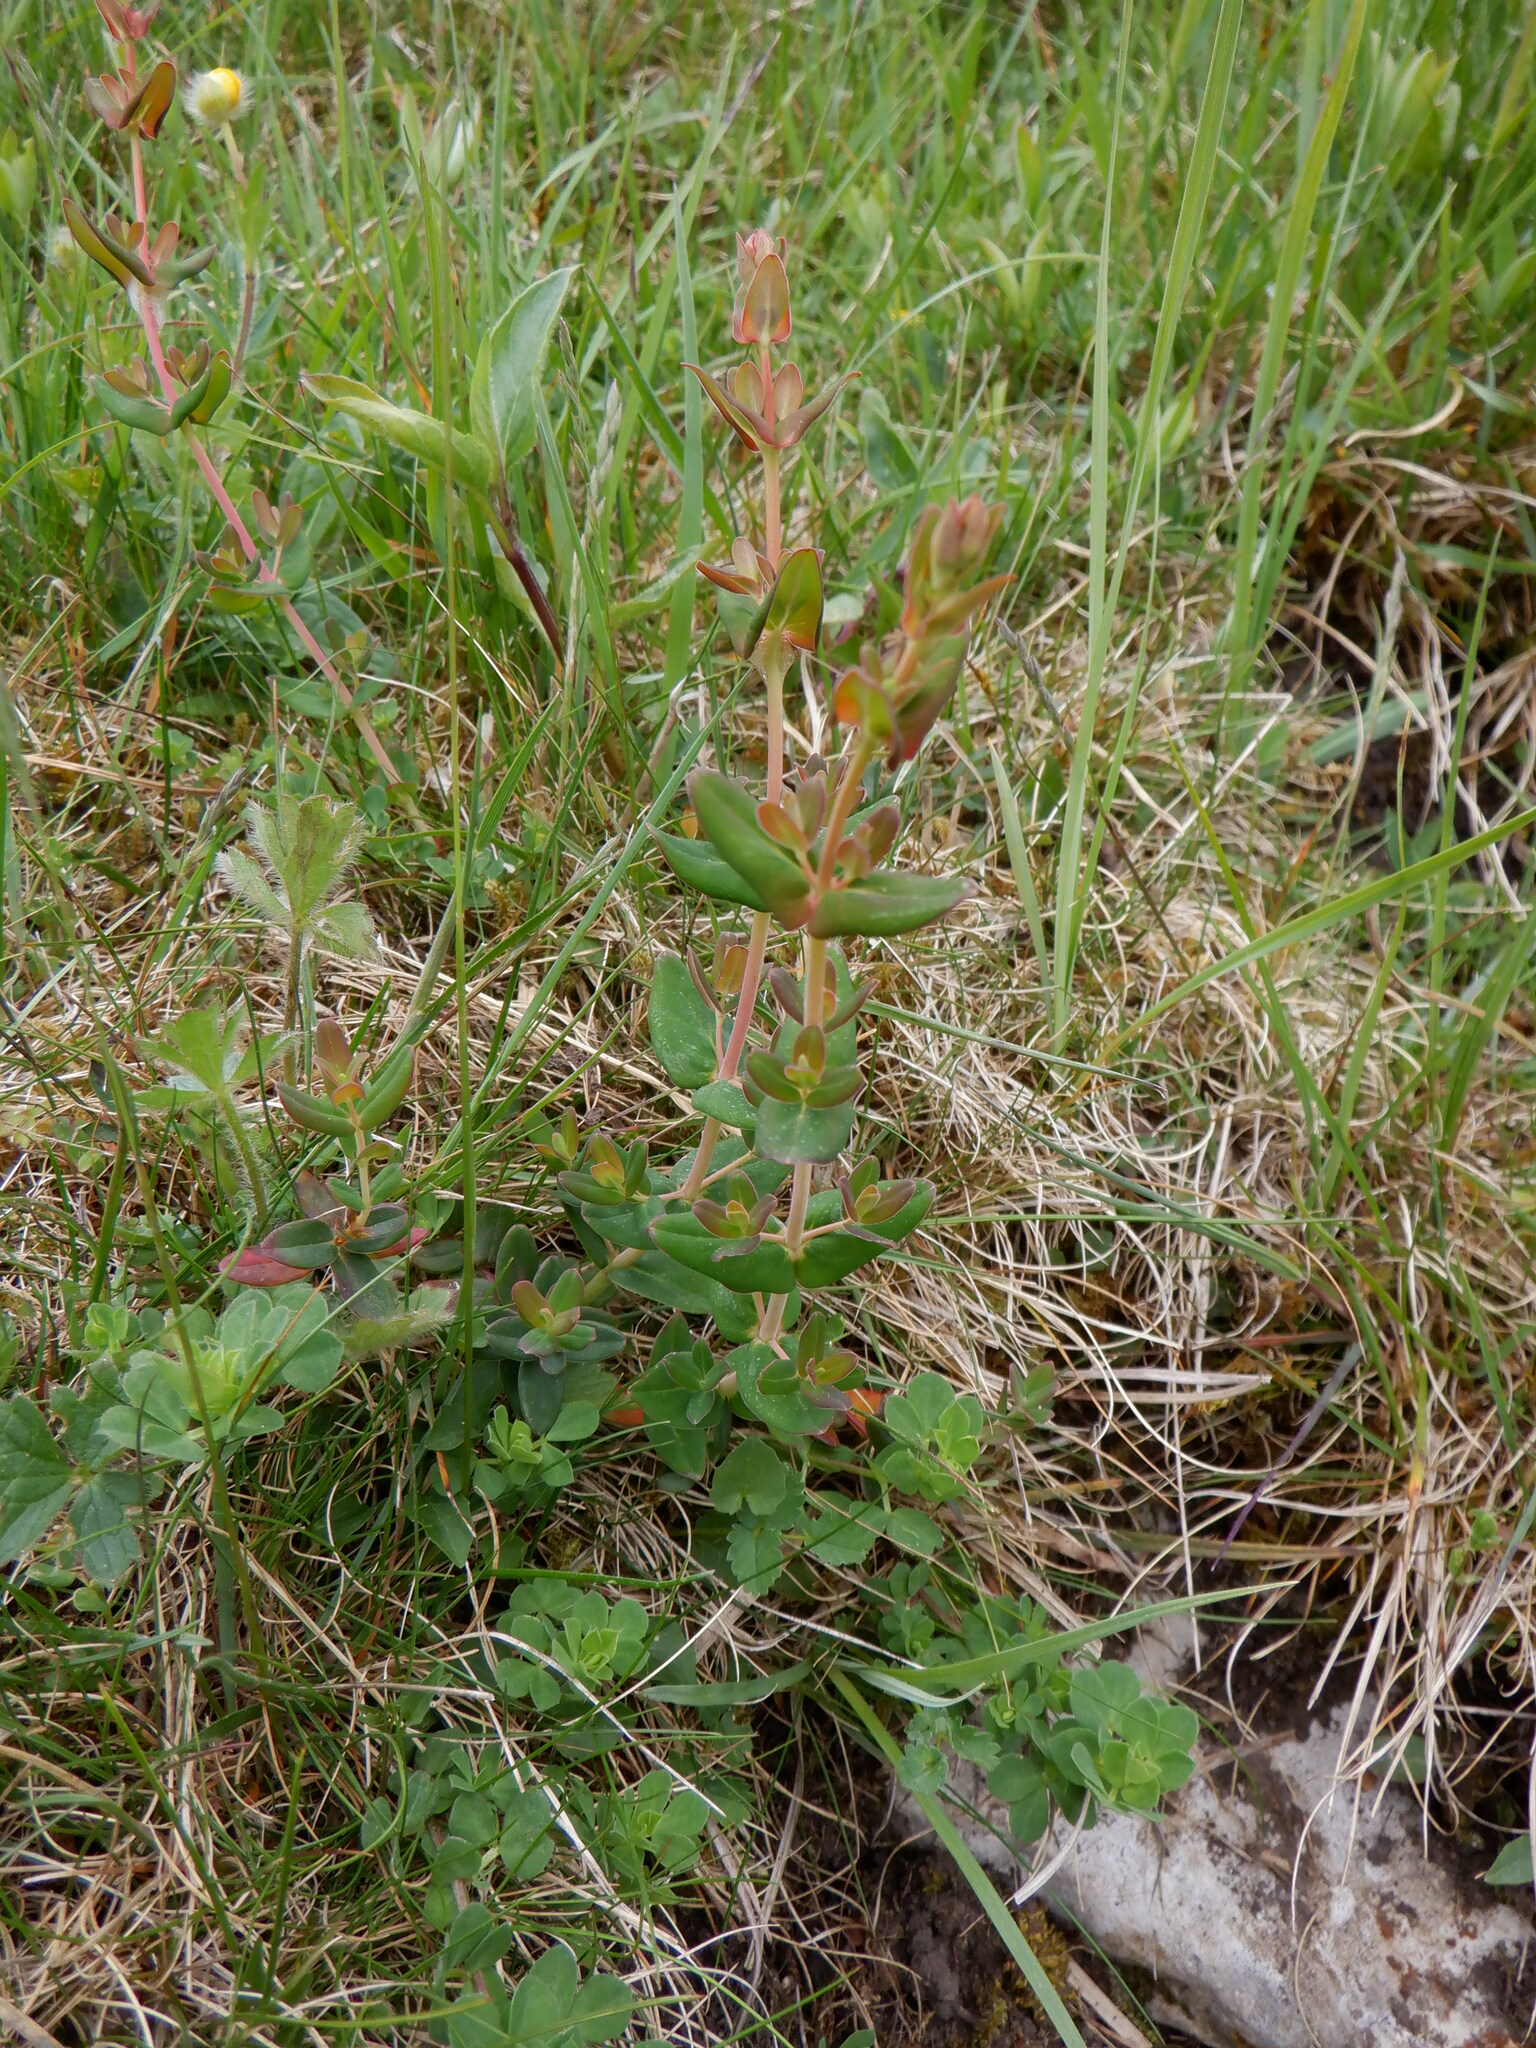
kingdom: Plantae
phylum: Tracheophyta
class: Magnoliopsida
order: Malpighiales
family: Hypericaceae
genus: Hypericum
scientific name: Hypericum pulchrum
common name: Slender st. john's-wort
